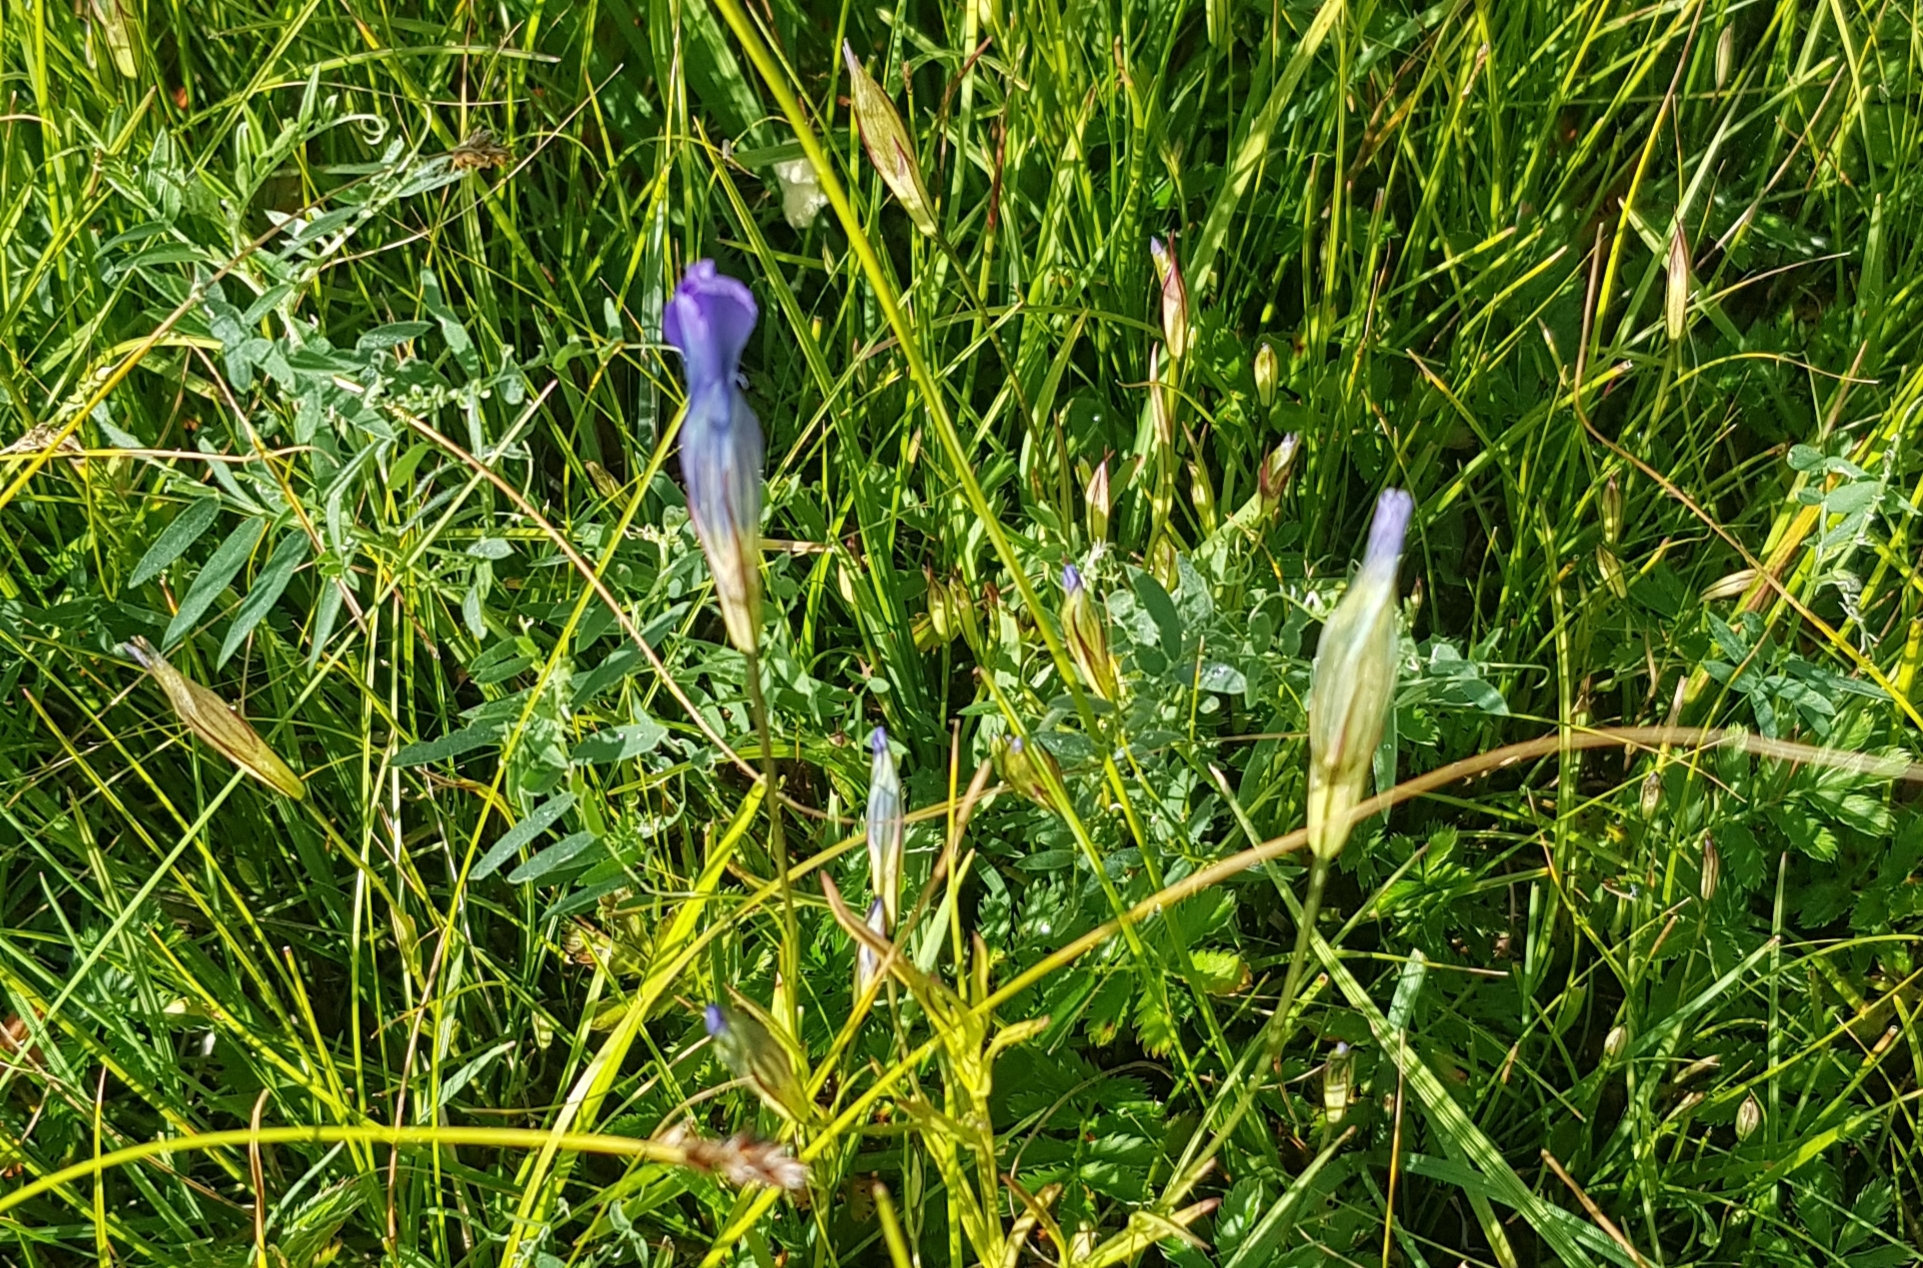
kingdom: Plantae
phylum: Tracheophyta
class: Magnoliopsida
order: Gentianales
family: Gentianaceae
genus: Gentianopsis
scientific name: Gentianopsis barbata
